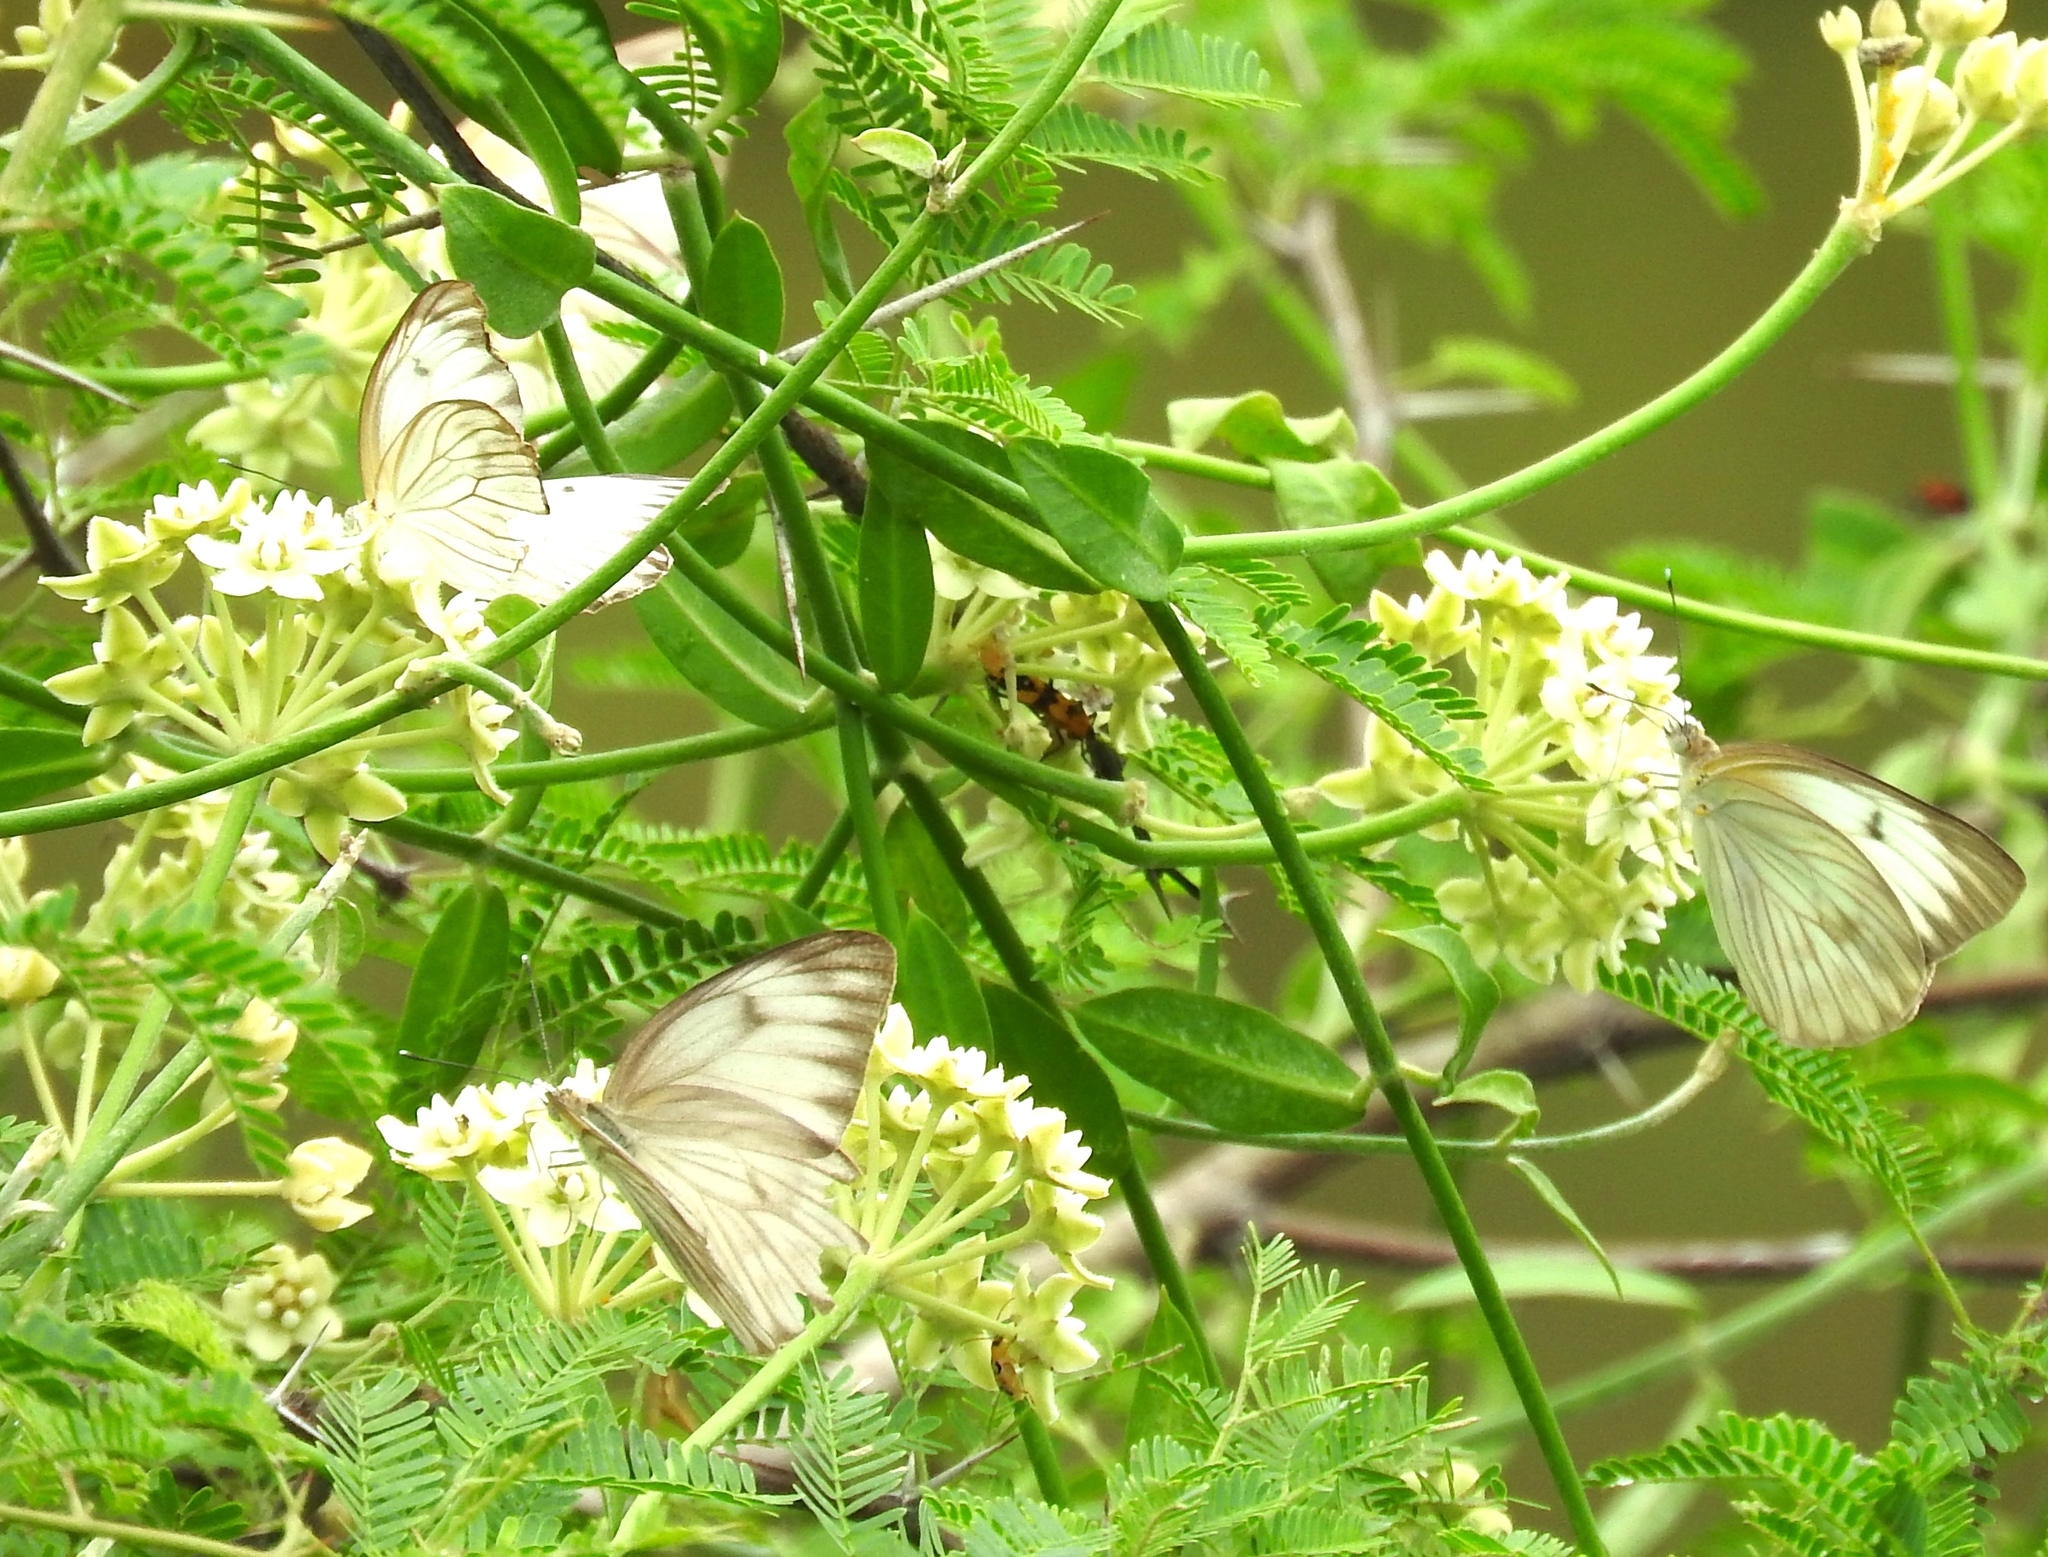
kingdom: Plantae
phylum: Tracheophyta
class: Magnoliopsida
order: Gentianales
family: Apocynaceae
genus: Funastrum
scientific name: Funastrum clausum
